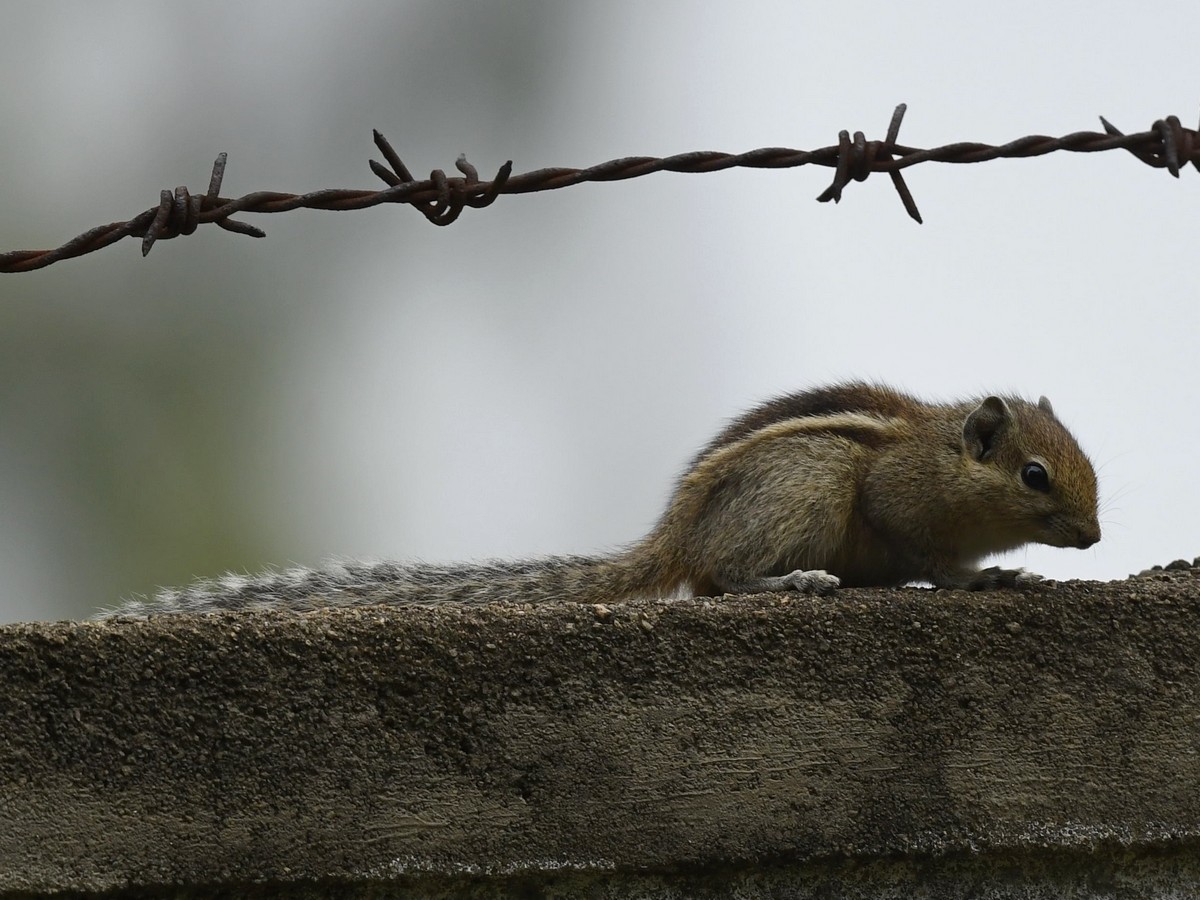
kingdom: Animalia
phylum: Chordata
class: Mammalia
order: Rodentia
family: Sciuridae
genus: Funambulus
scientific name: Funambulus palmarum
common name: Indian palm squirrel
